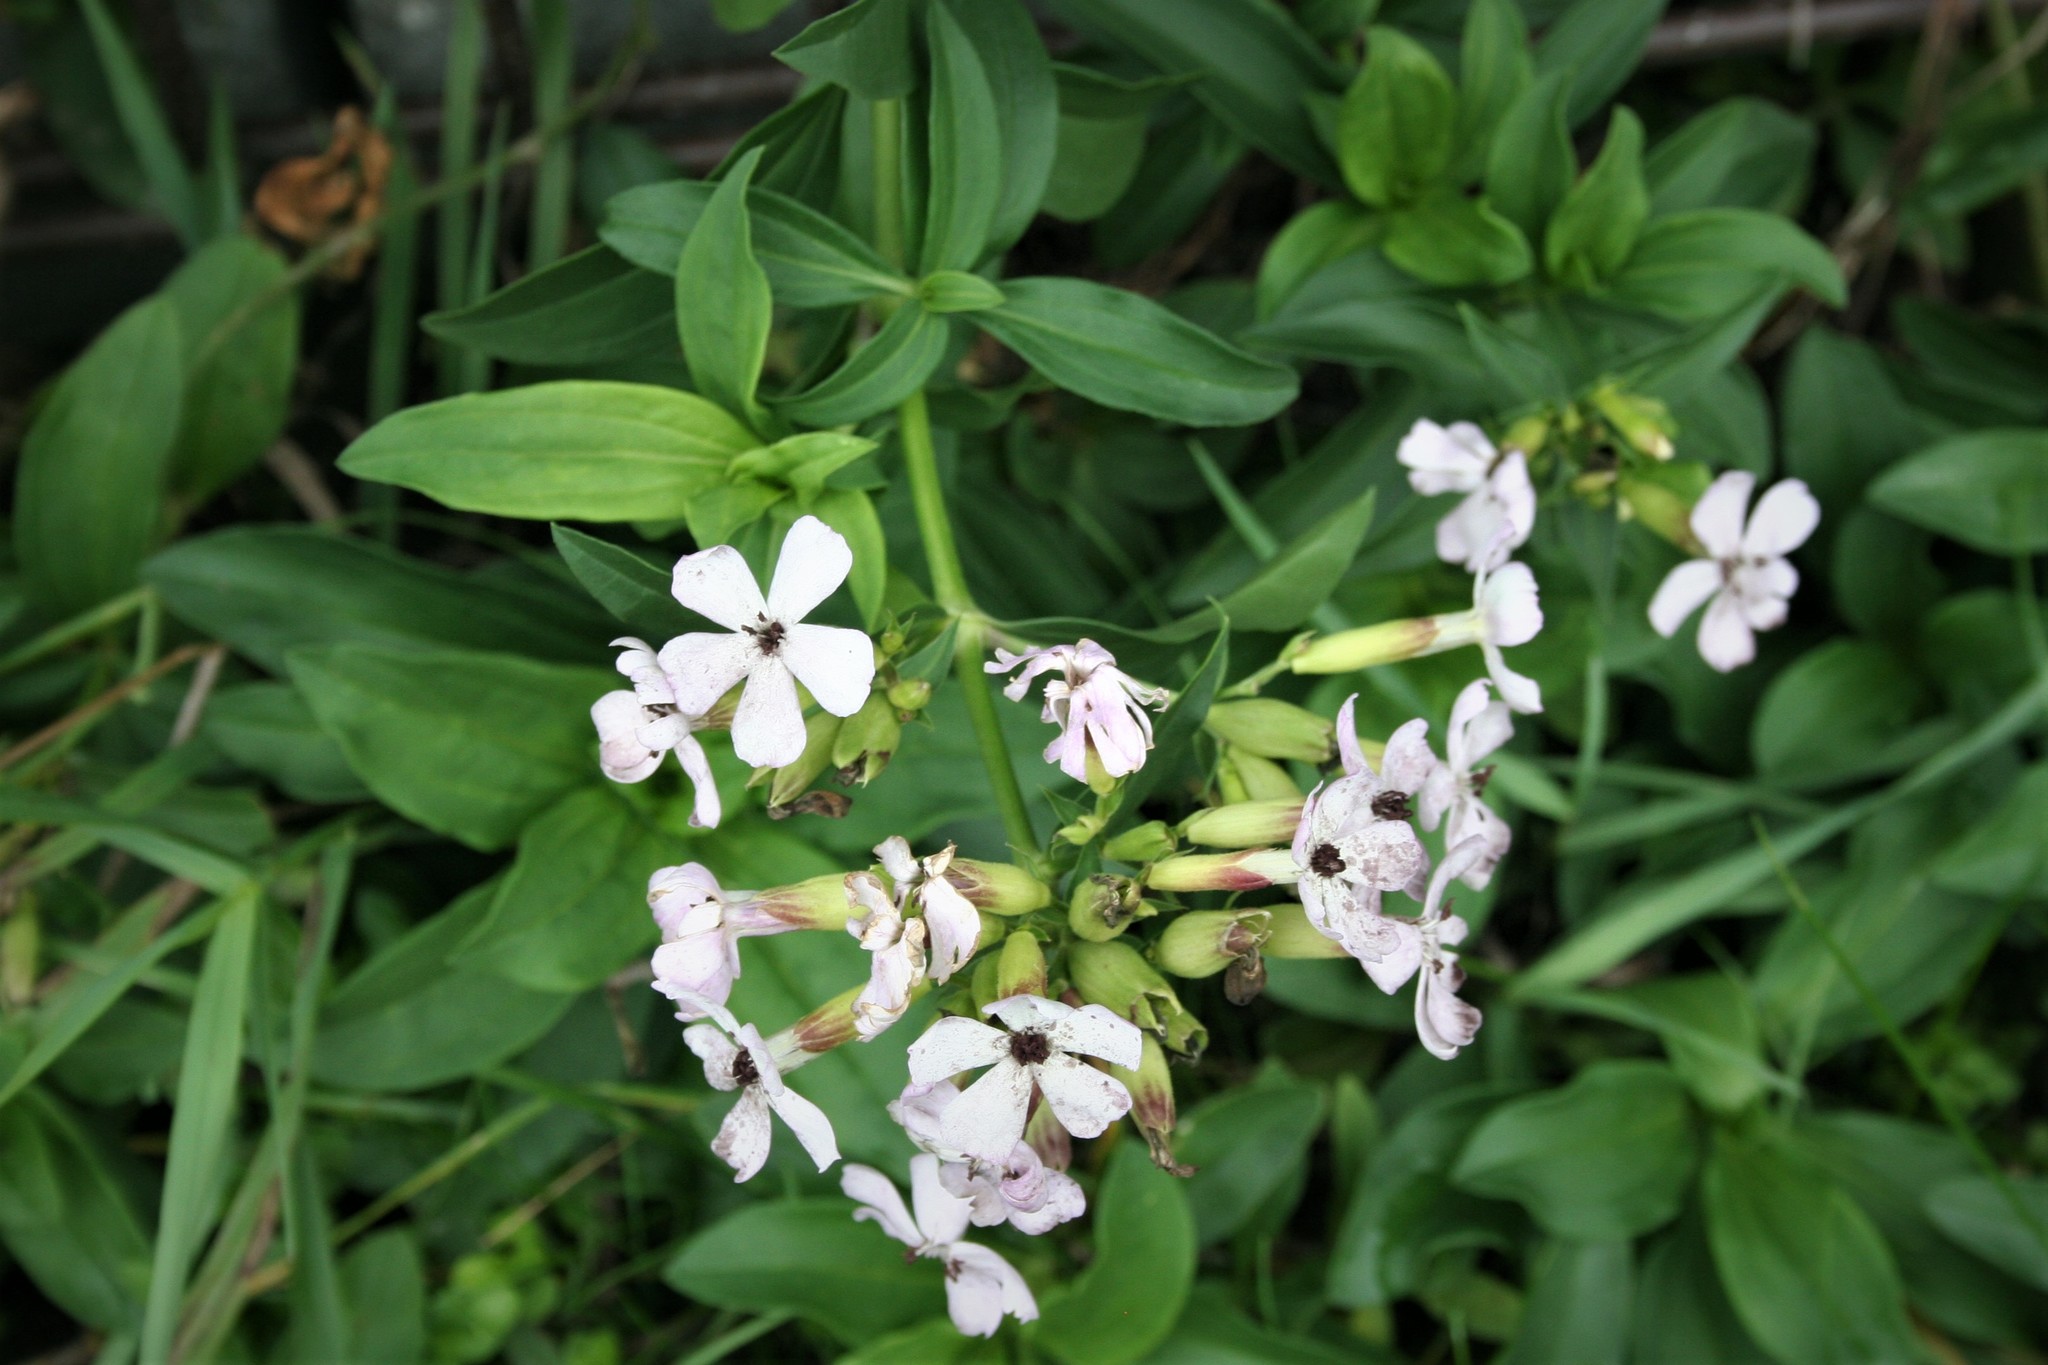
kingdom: Fungi
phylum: Basidiomycota
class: Microbotryomycetes
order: Microbotryales
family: Microbotryaceae
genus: Microbotryum
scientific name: Microbotryum saponariae
